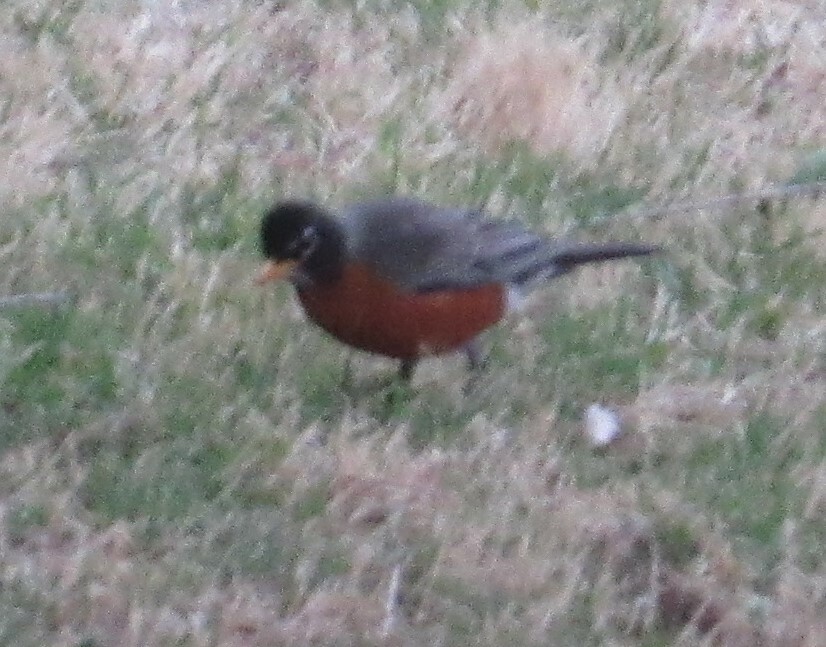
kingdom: Animalia
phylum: Chordata
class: Aves
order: Passeriformes
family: Turdidae
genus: Turdus
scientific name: Turdus migratorius
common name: American robin
